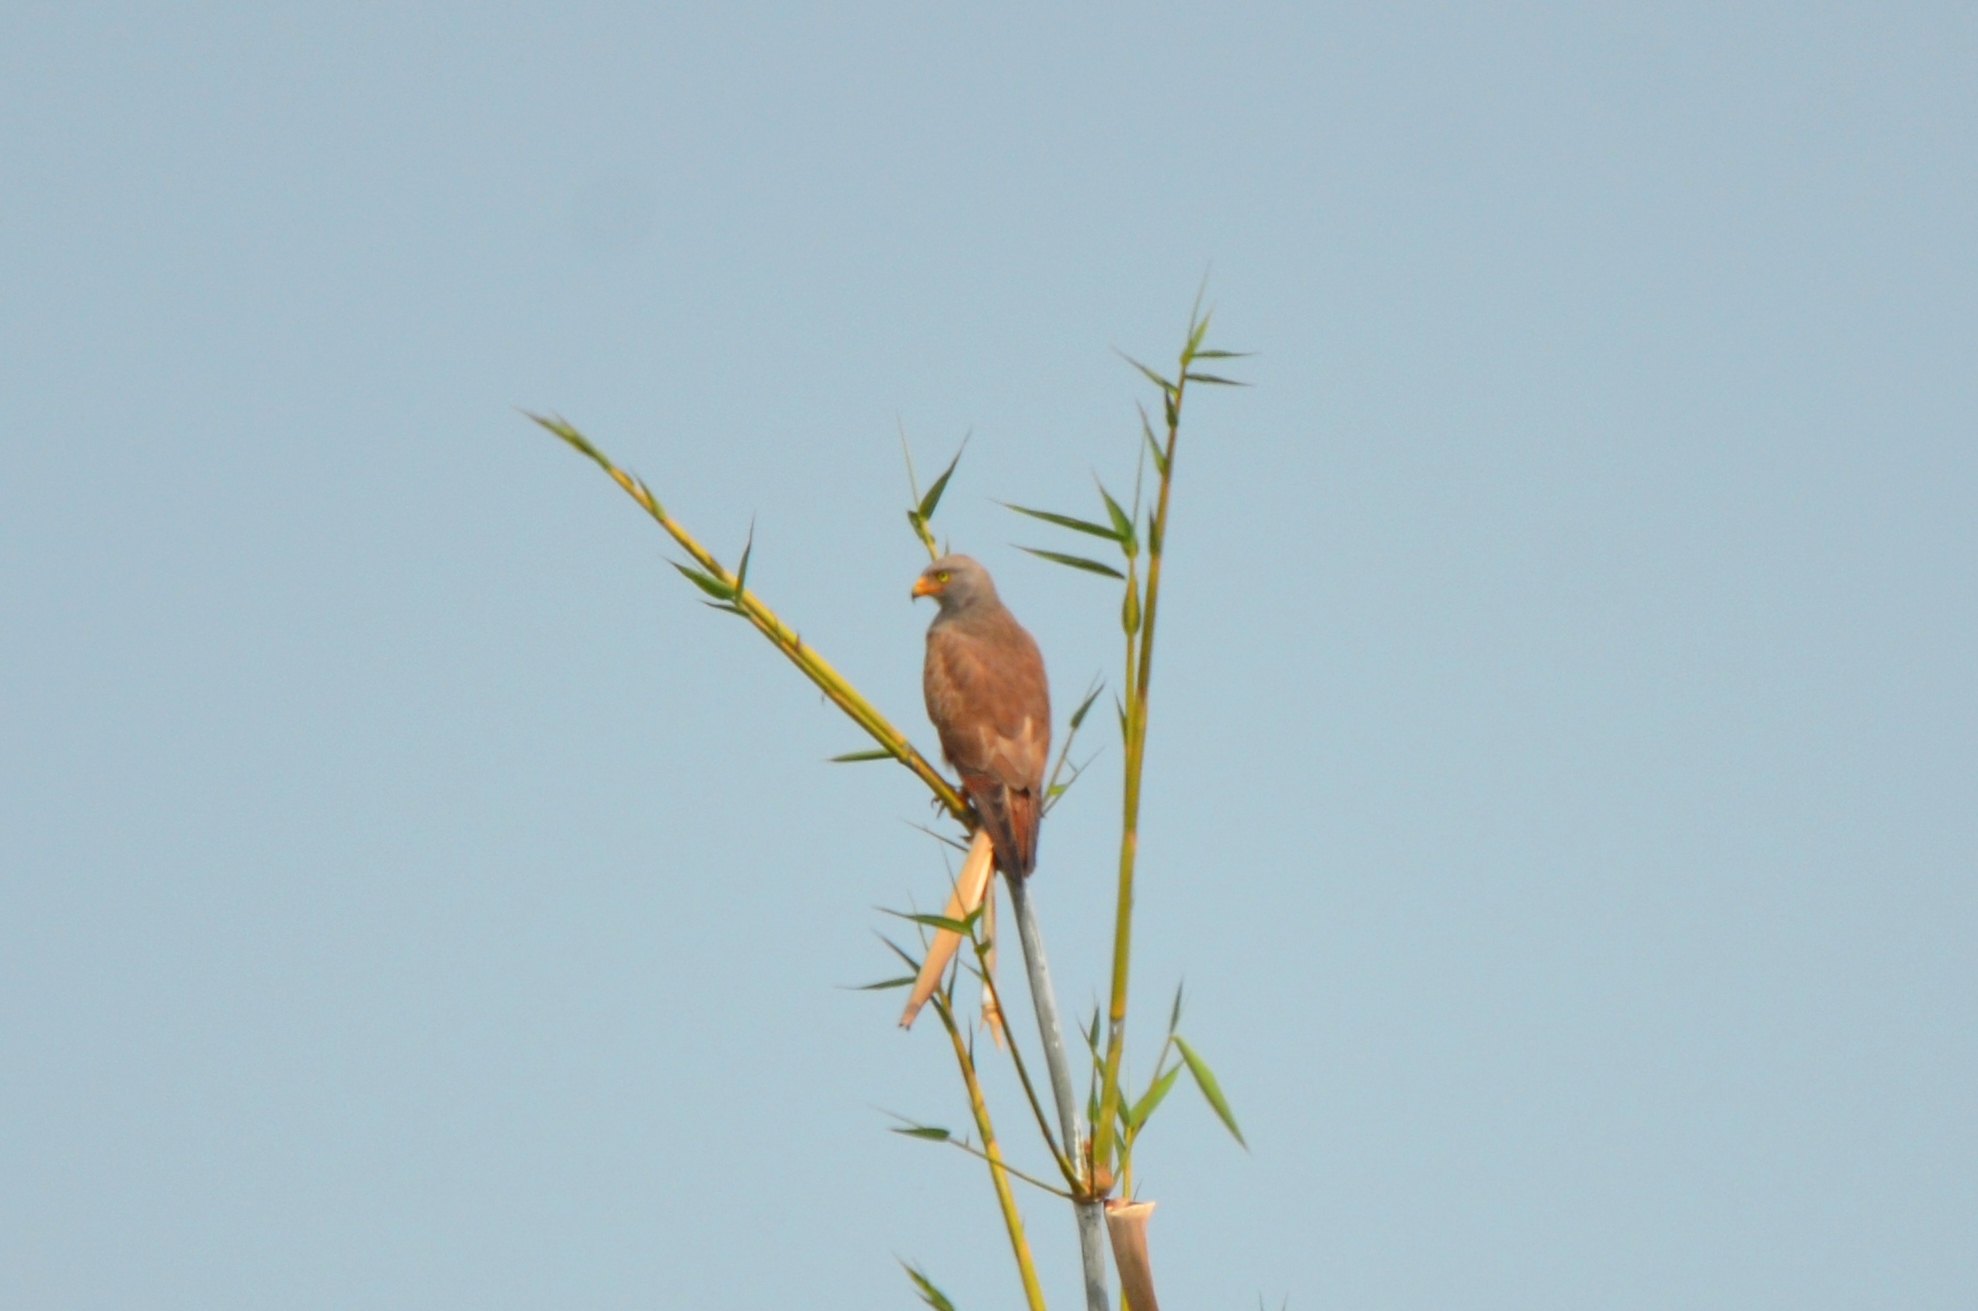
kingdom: Animalia
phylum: Chordata
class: Aves
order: Accipitriformes
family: Accipitridae
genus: Butastur
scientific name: Butastur liventer
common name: Rufous-winged buzzard
